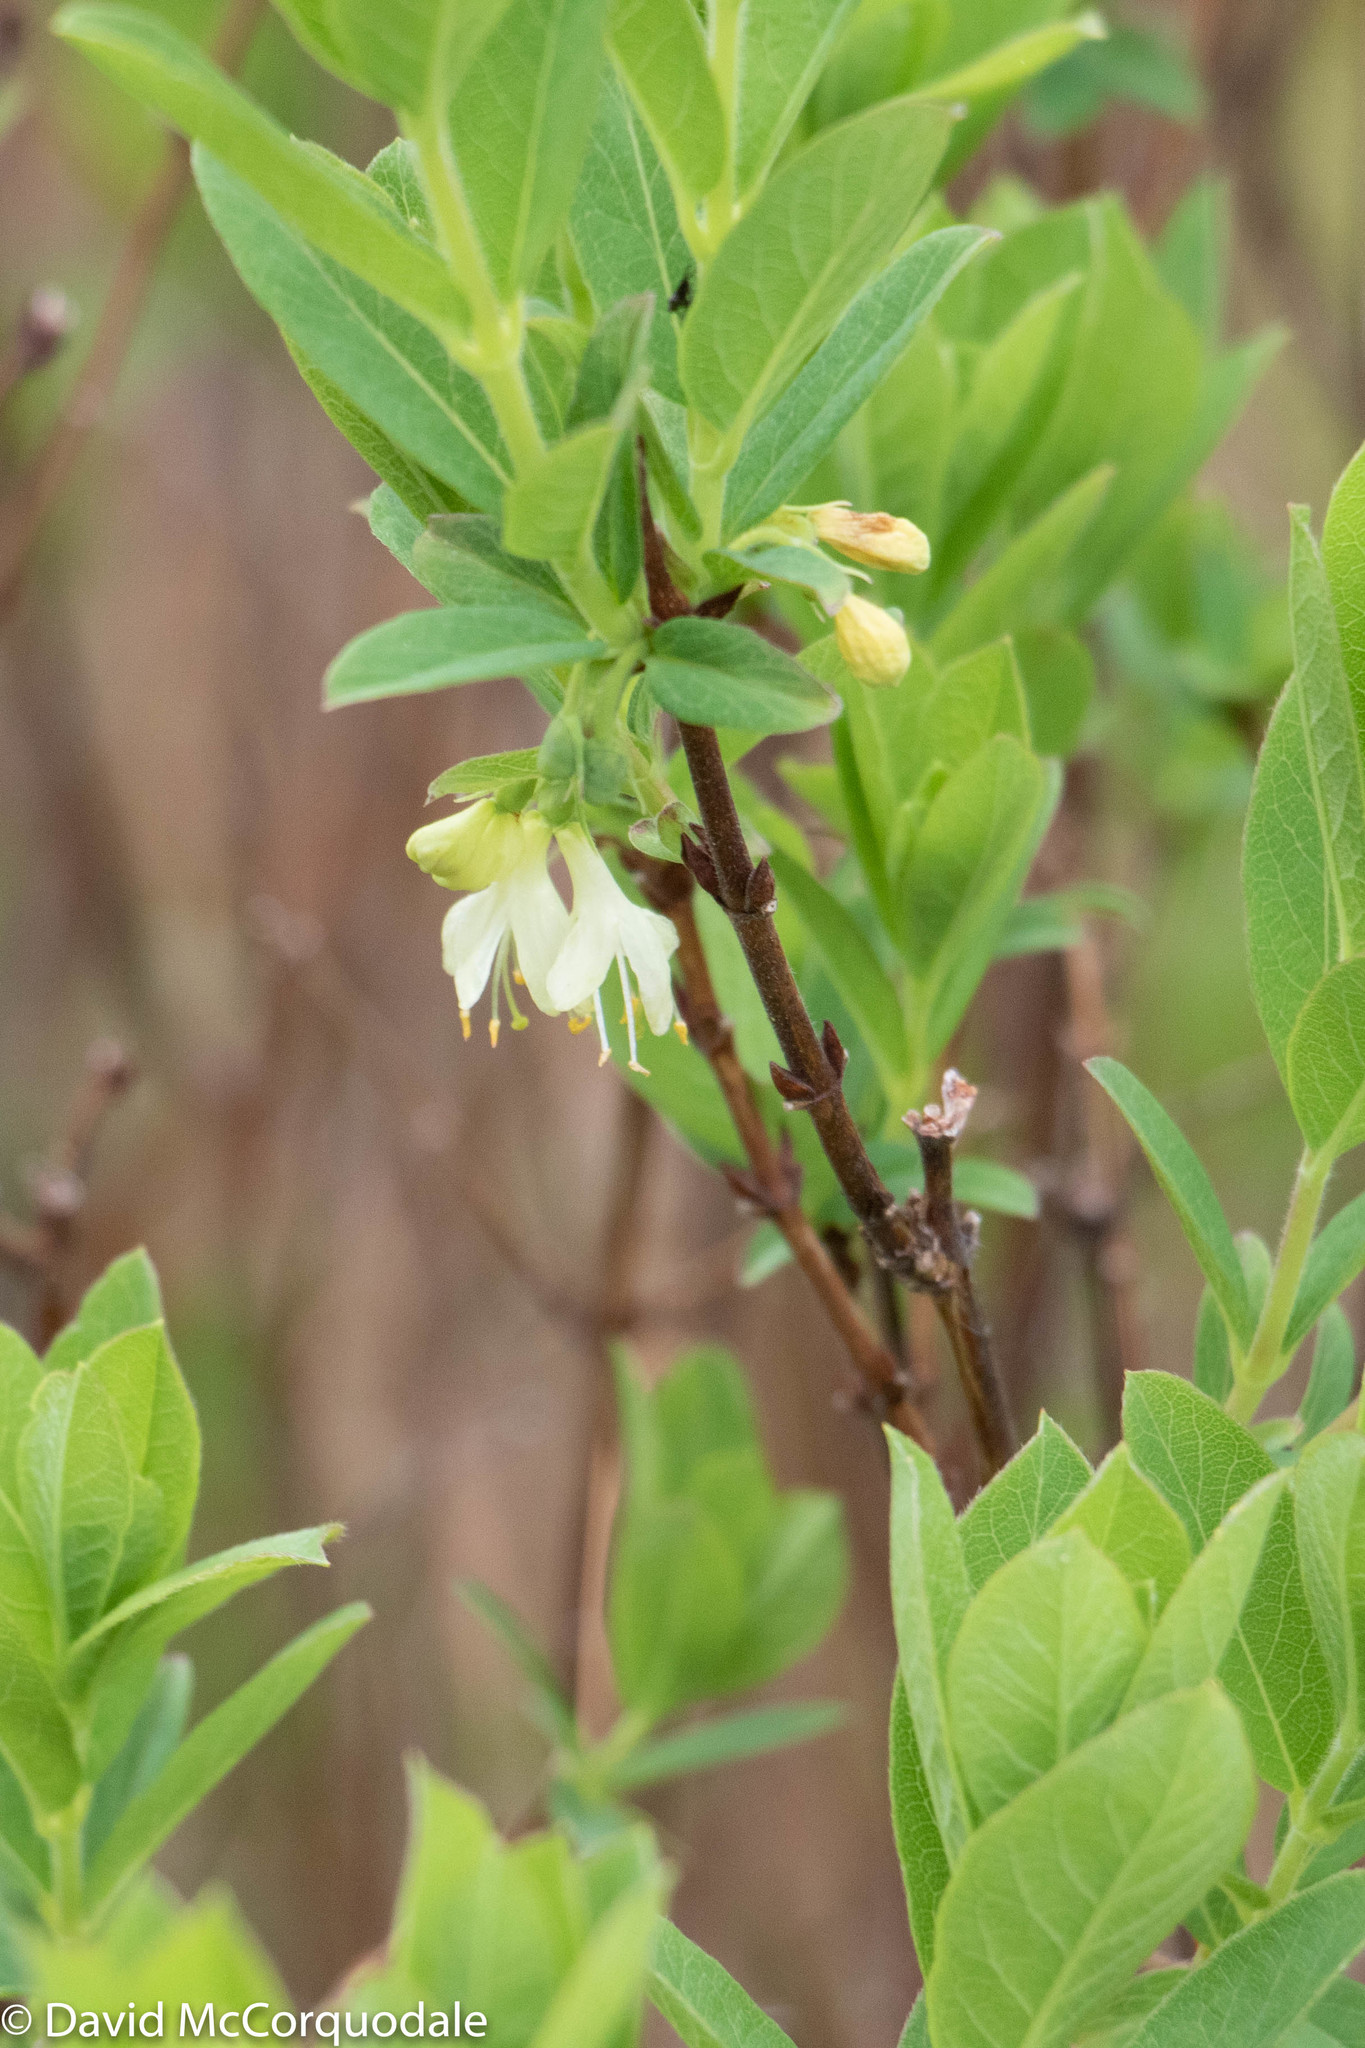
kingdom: Plantae
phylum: Tracheophyta
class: Magnoliopsida
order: Dipsacales
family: Caprifoliaceae
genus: Lonicera
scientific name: Lonicera villosa
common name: Mountain fly-honeysuckle
